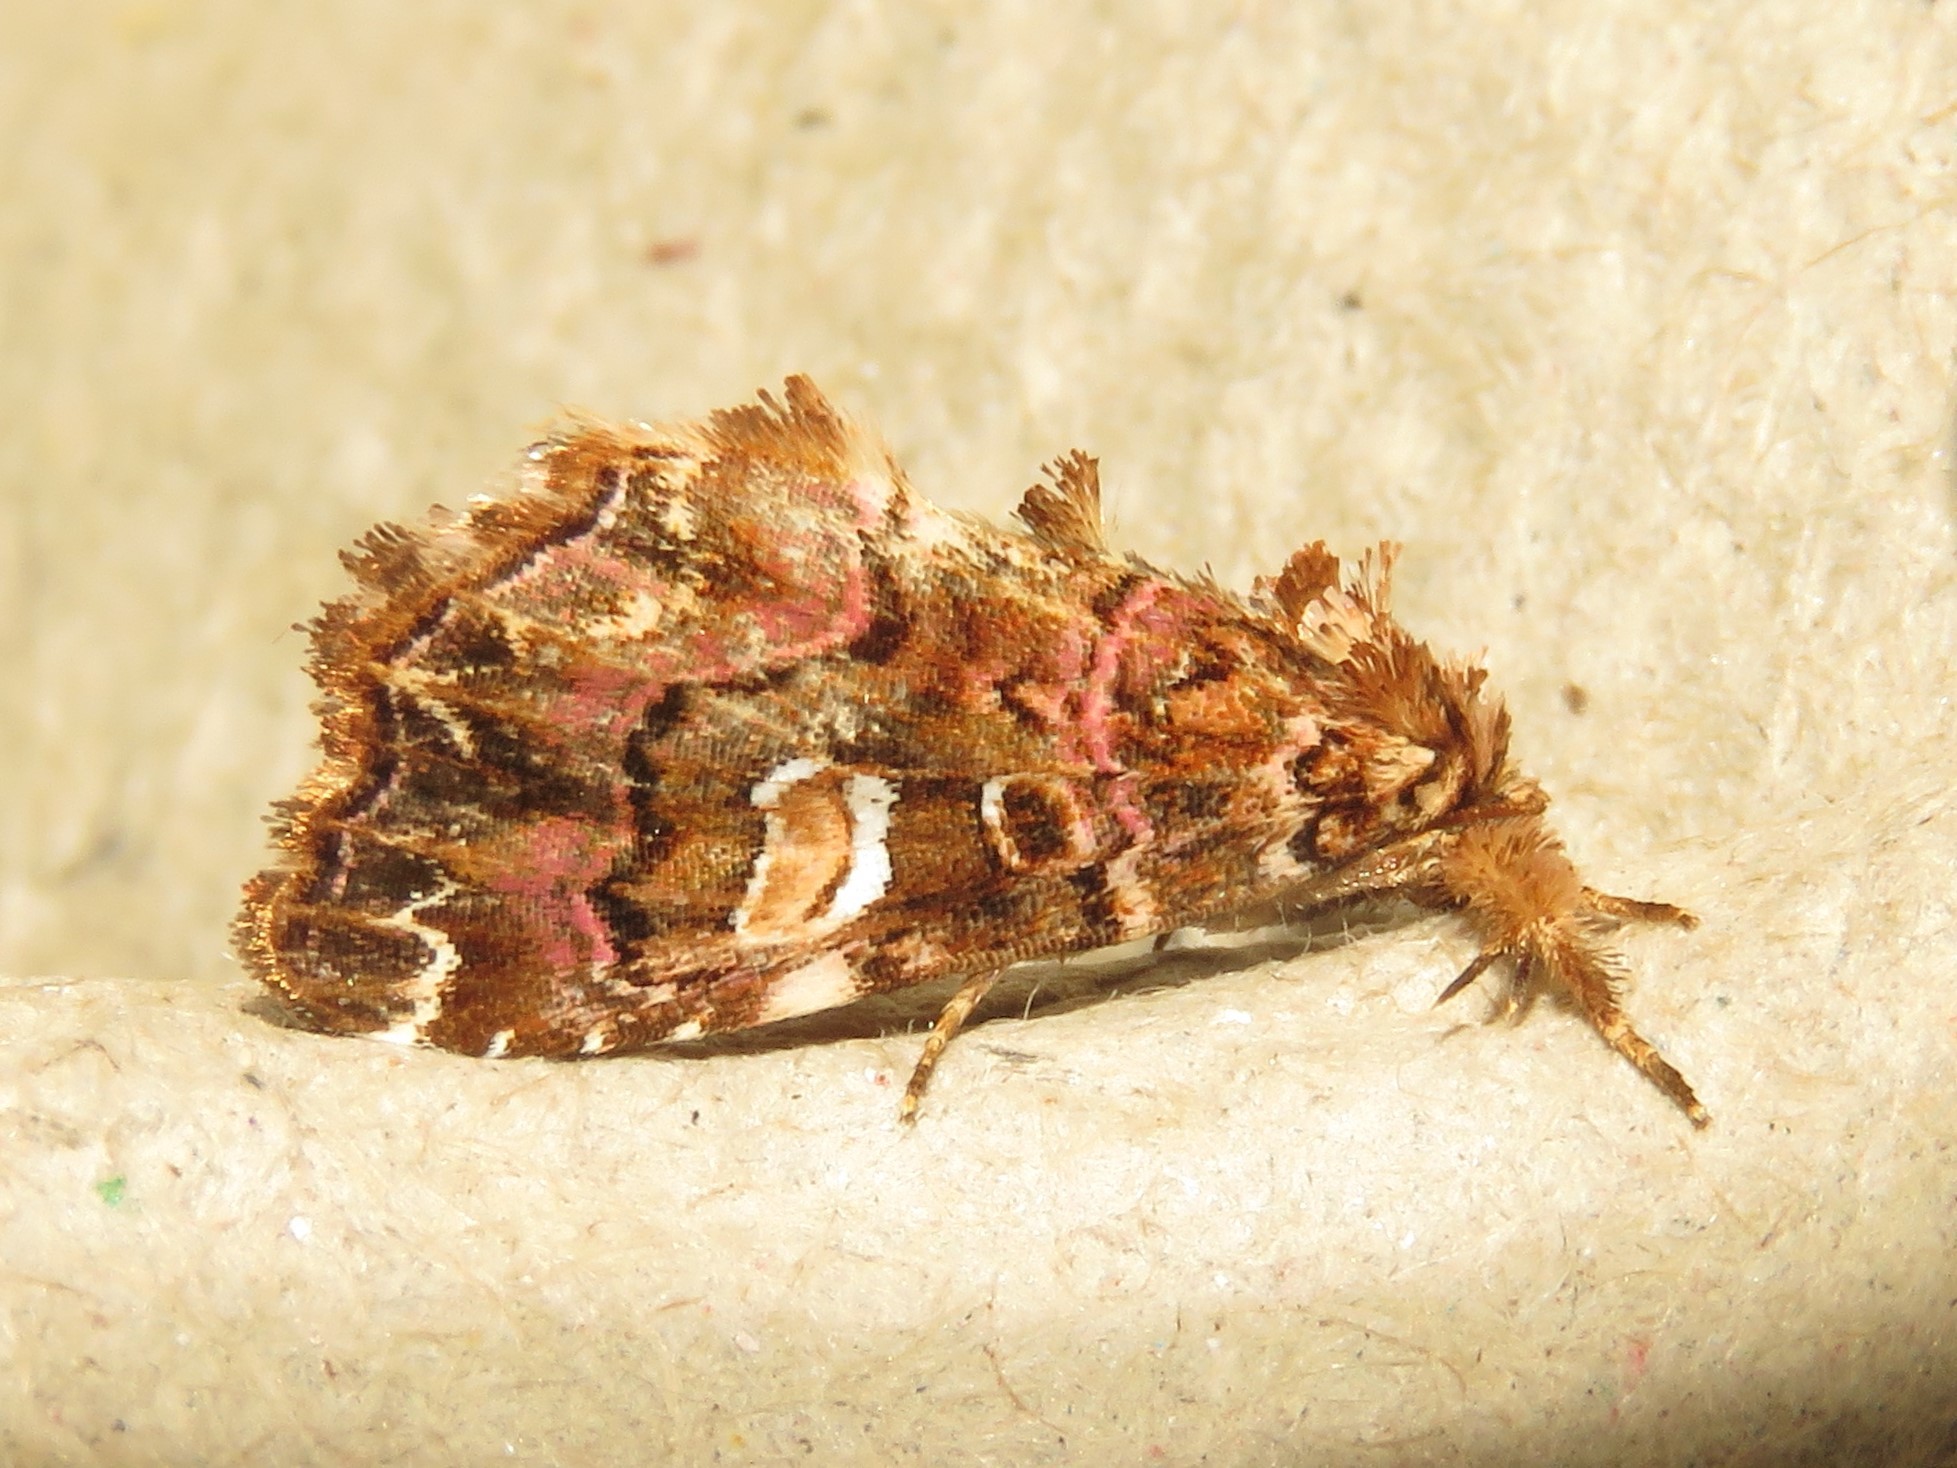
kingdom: Animalia
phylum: Arthropoda
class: Insecta
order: Lepidoptera
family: Noctuidae
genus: Callopistria
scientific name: Callopistria mollissima
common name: Pink-shaded fern moth
